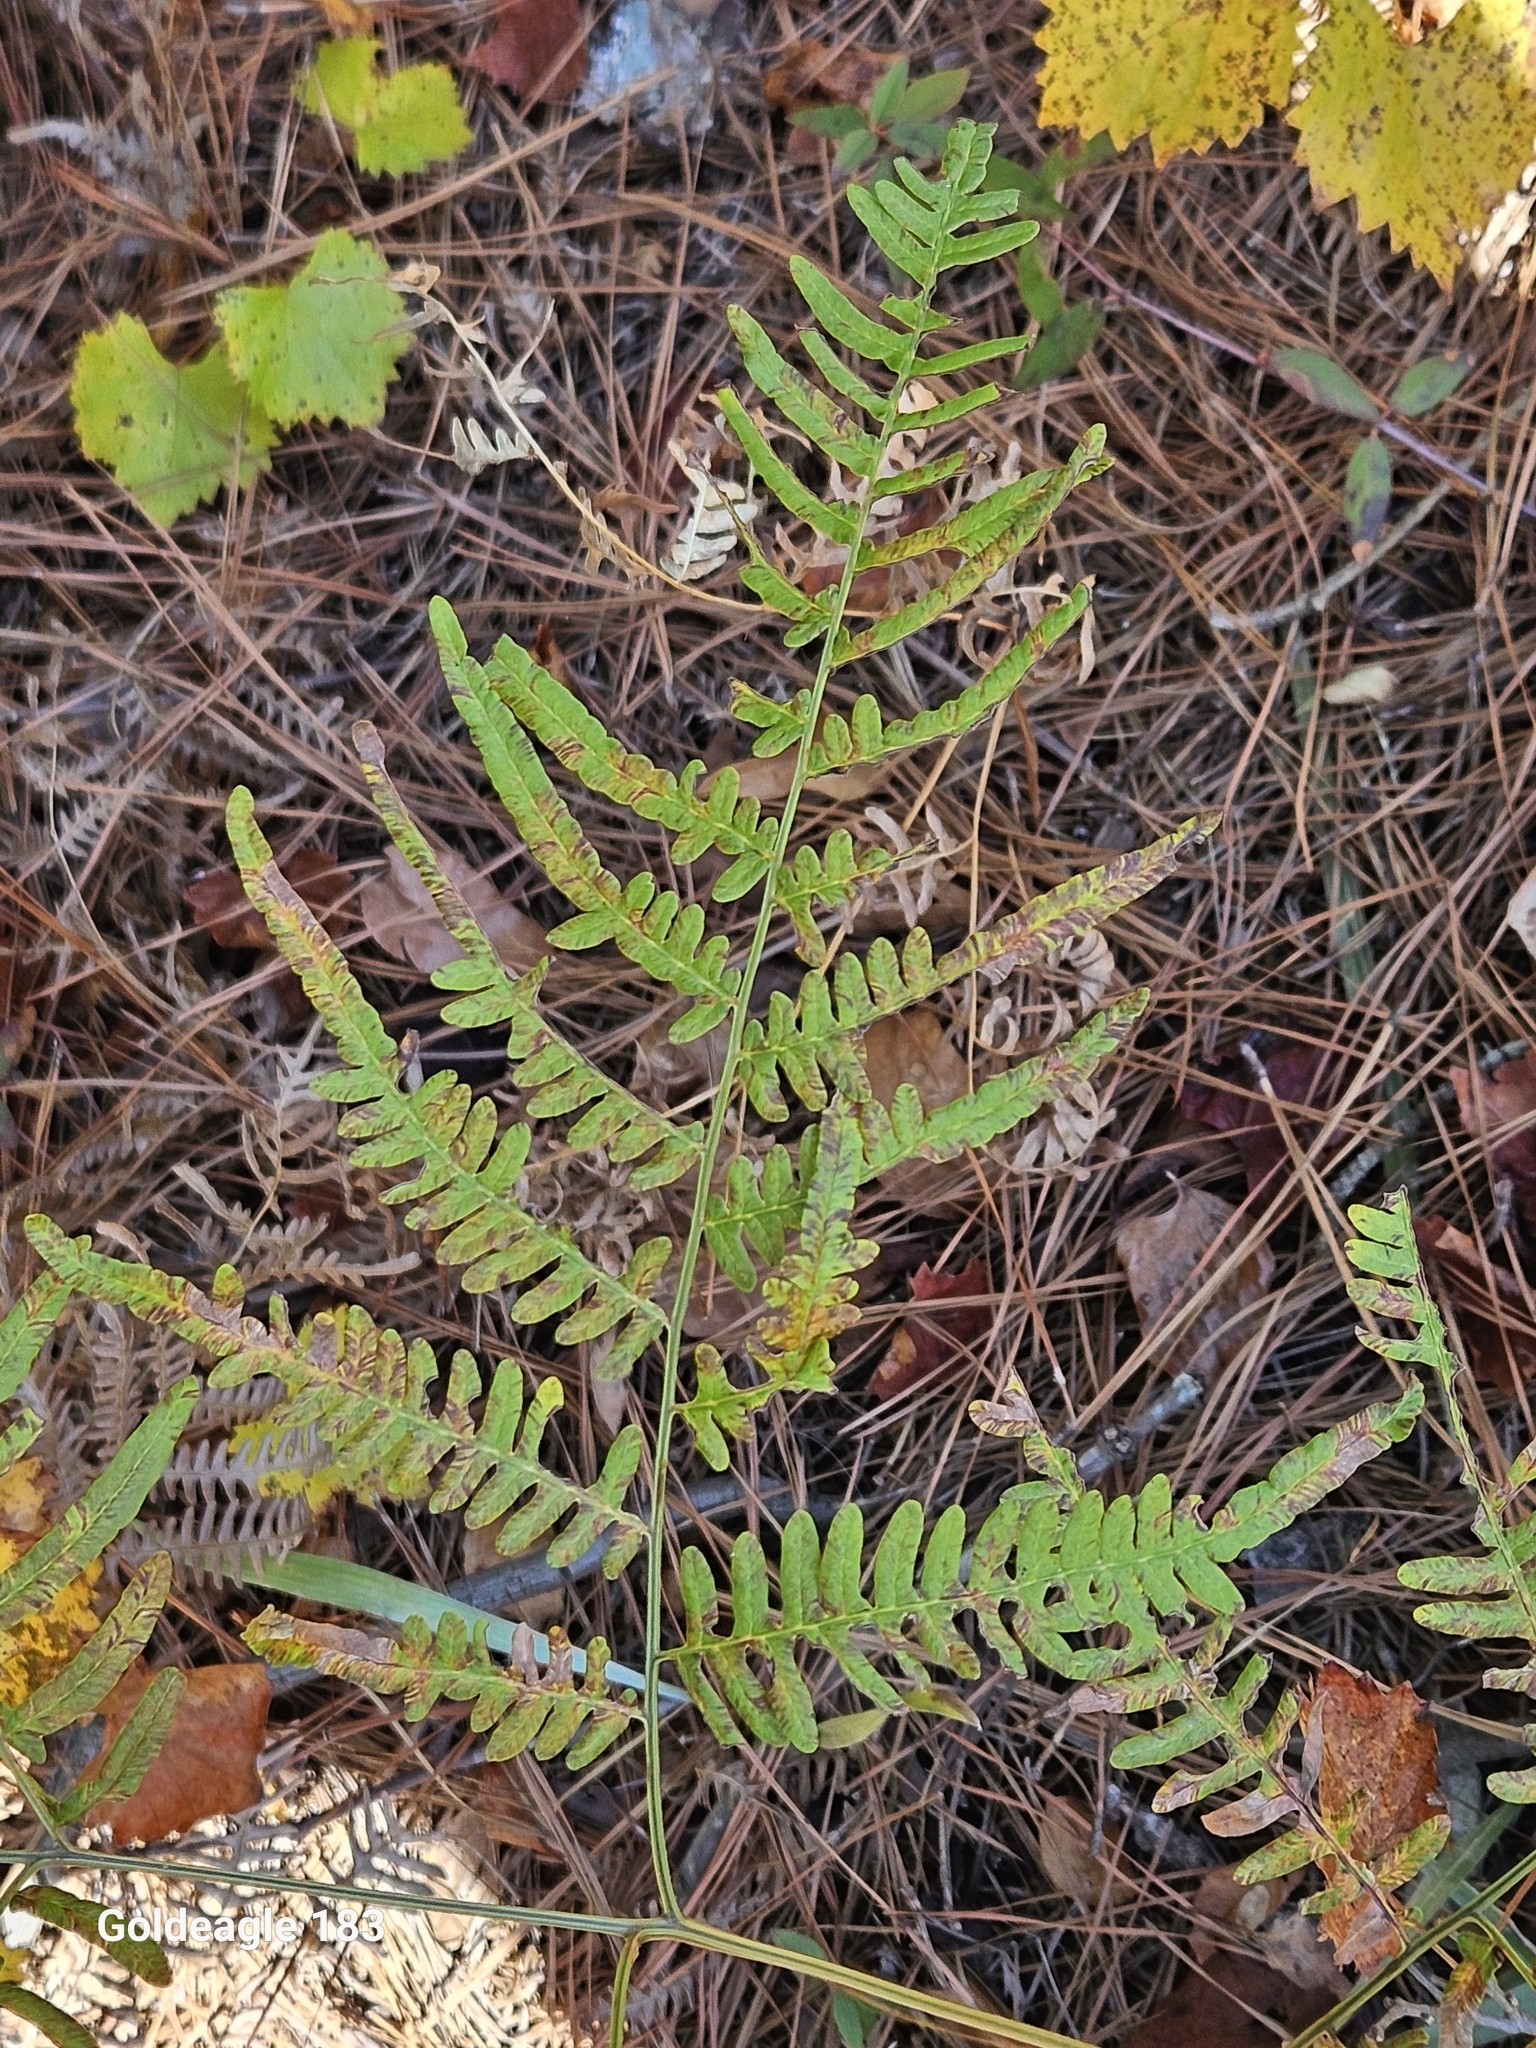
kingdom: Plantae
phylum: Tracheophyta
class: Polypodiopsida
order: Polypodiales
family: Dennstaedtiaceae
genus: Pteridium
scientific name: Pteridium
